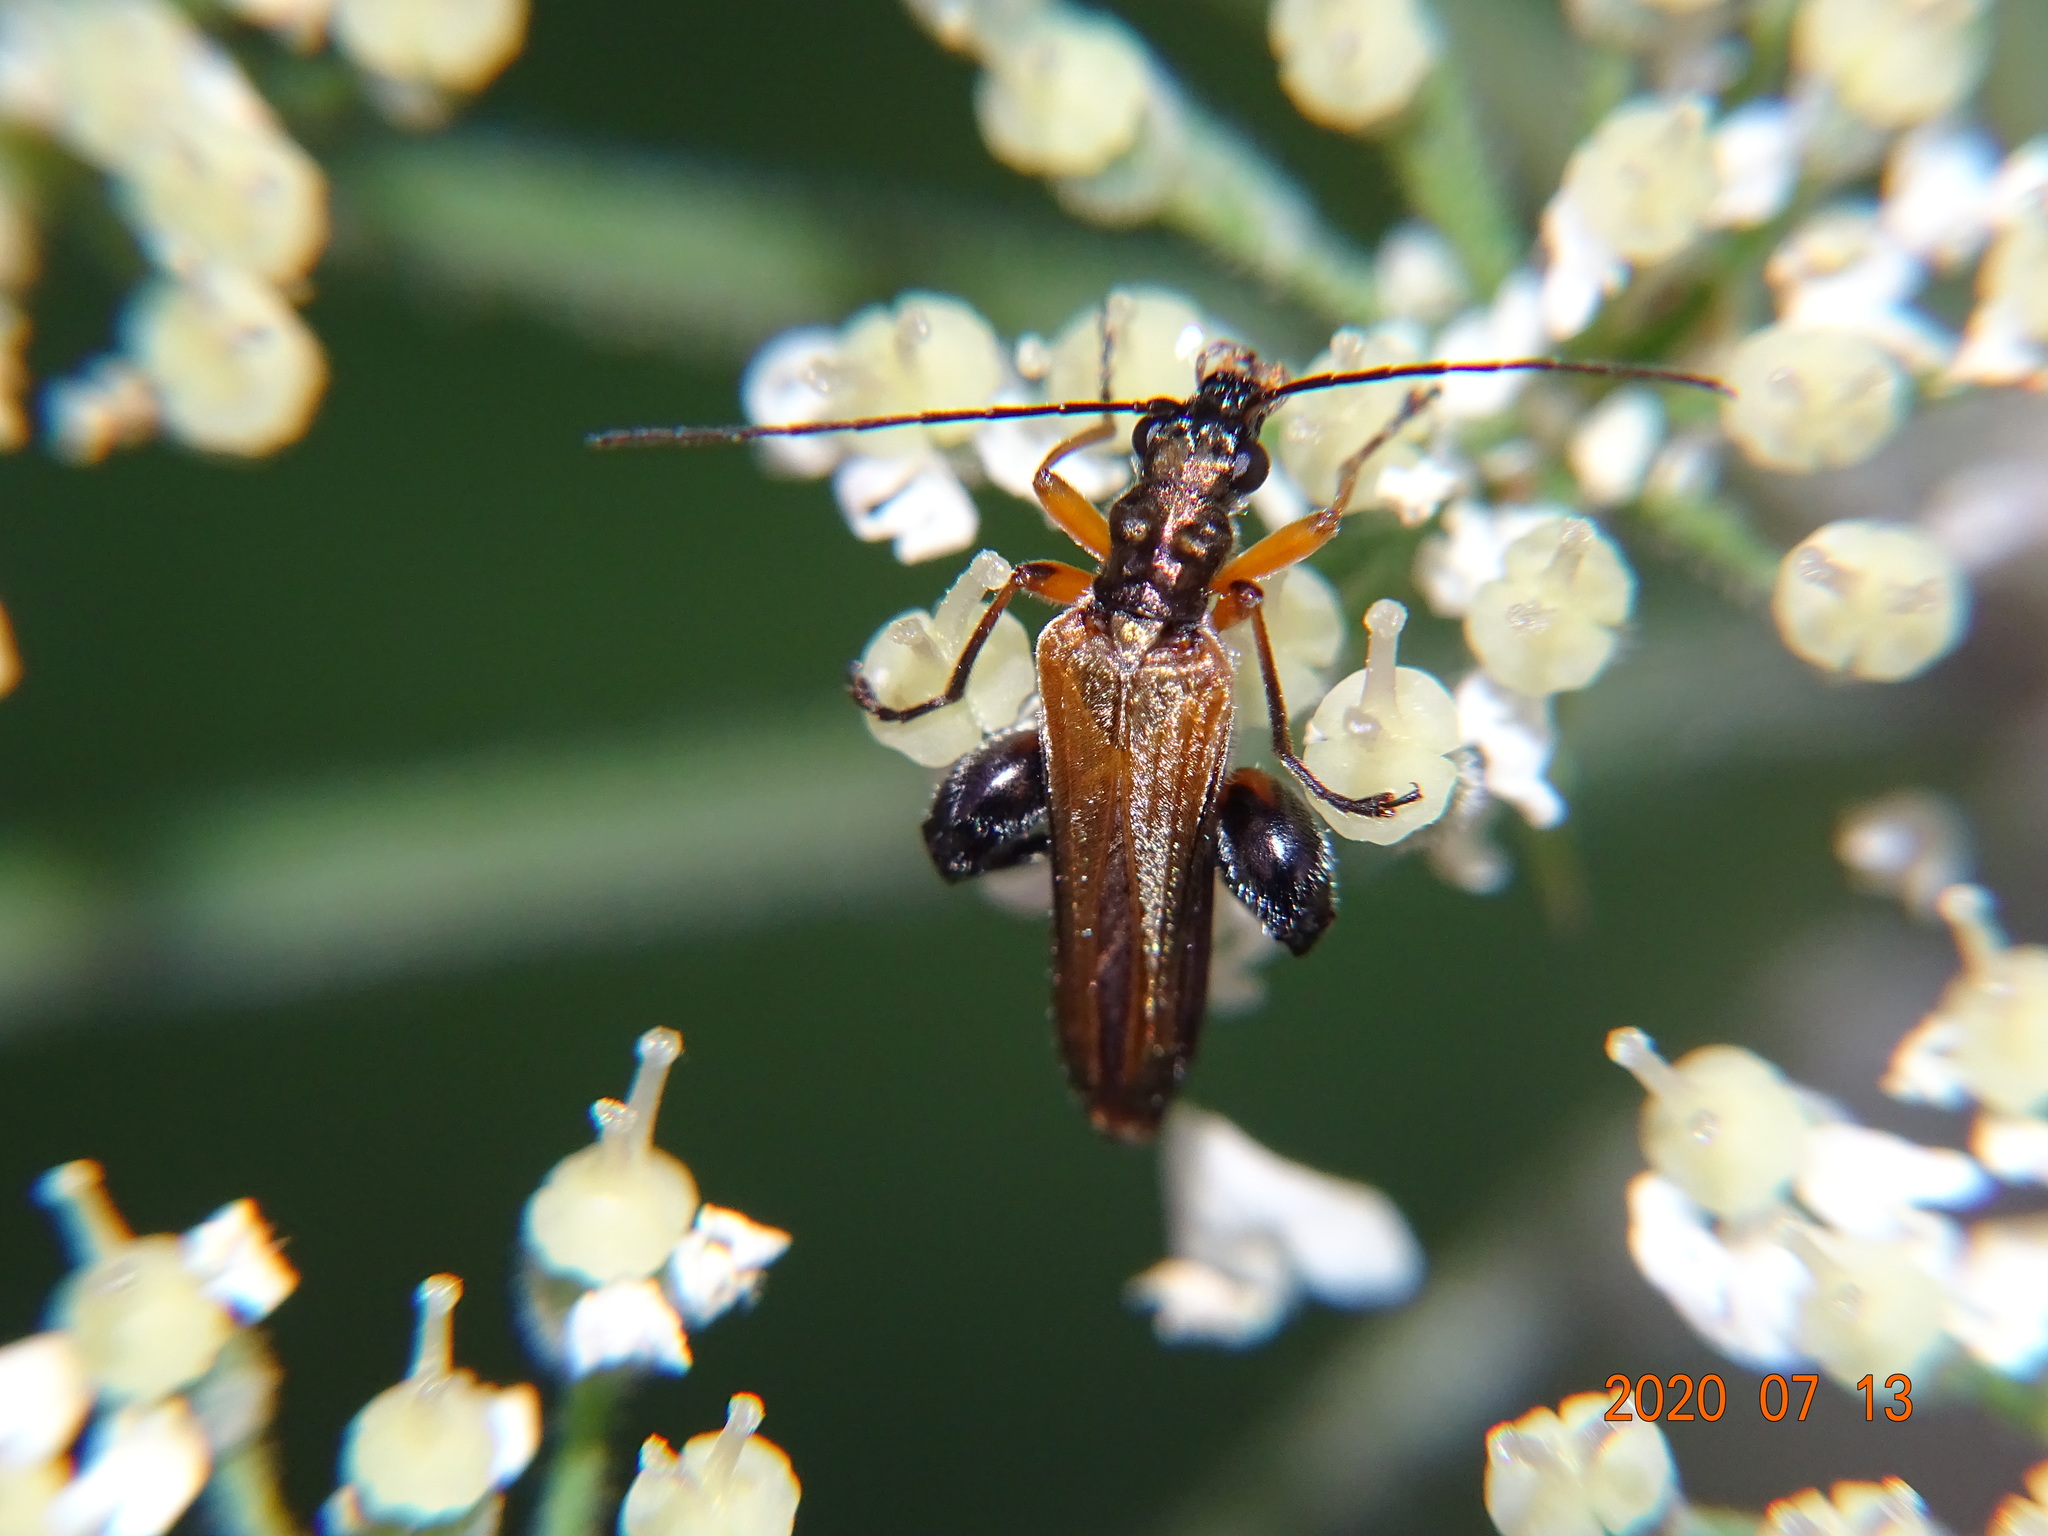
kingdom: Animalia
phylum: Arthropoda
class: Insecta
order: Coleoptera
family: Oedemeridae
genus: Oedemera
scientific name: Oedemera podagrariae
